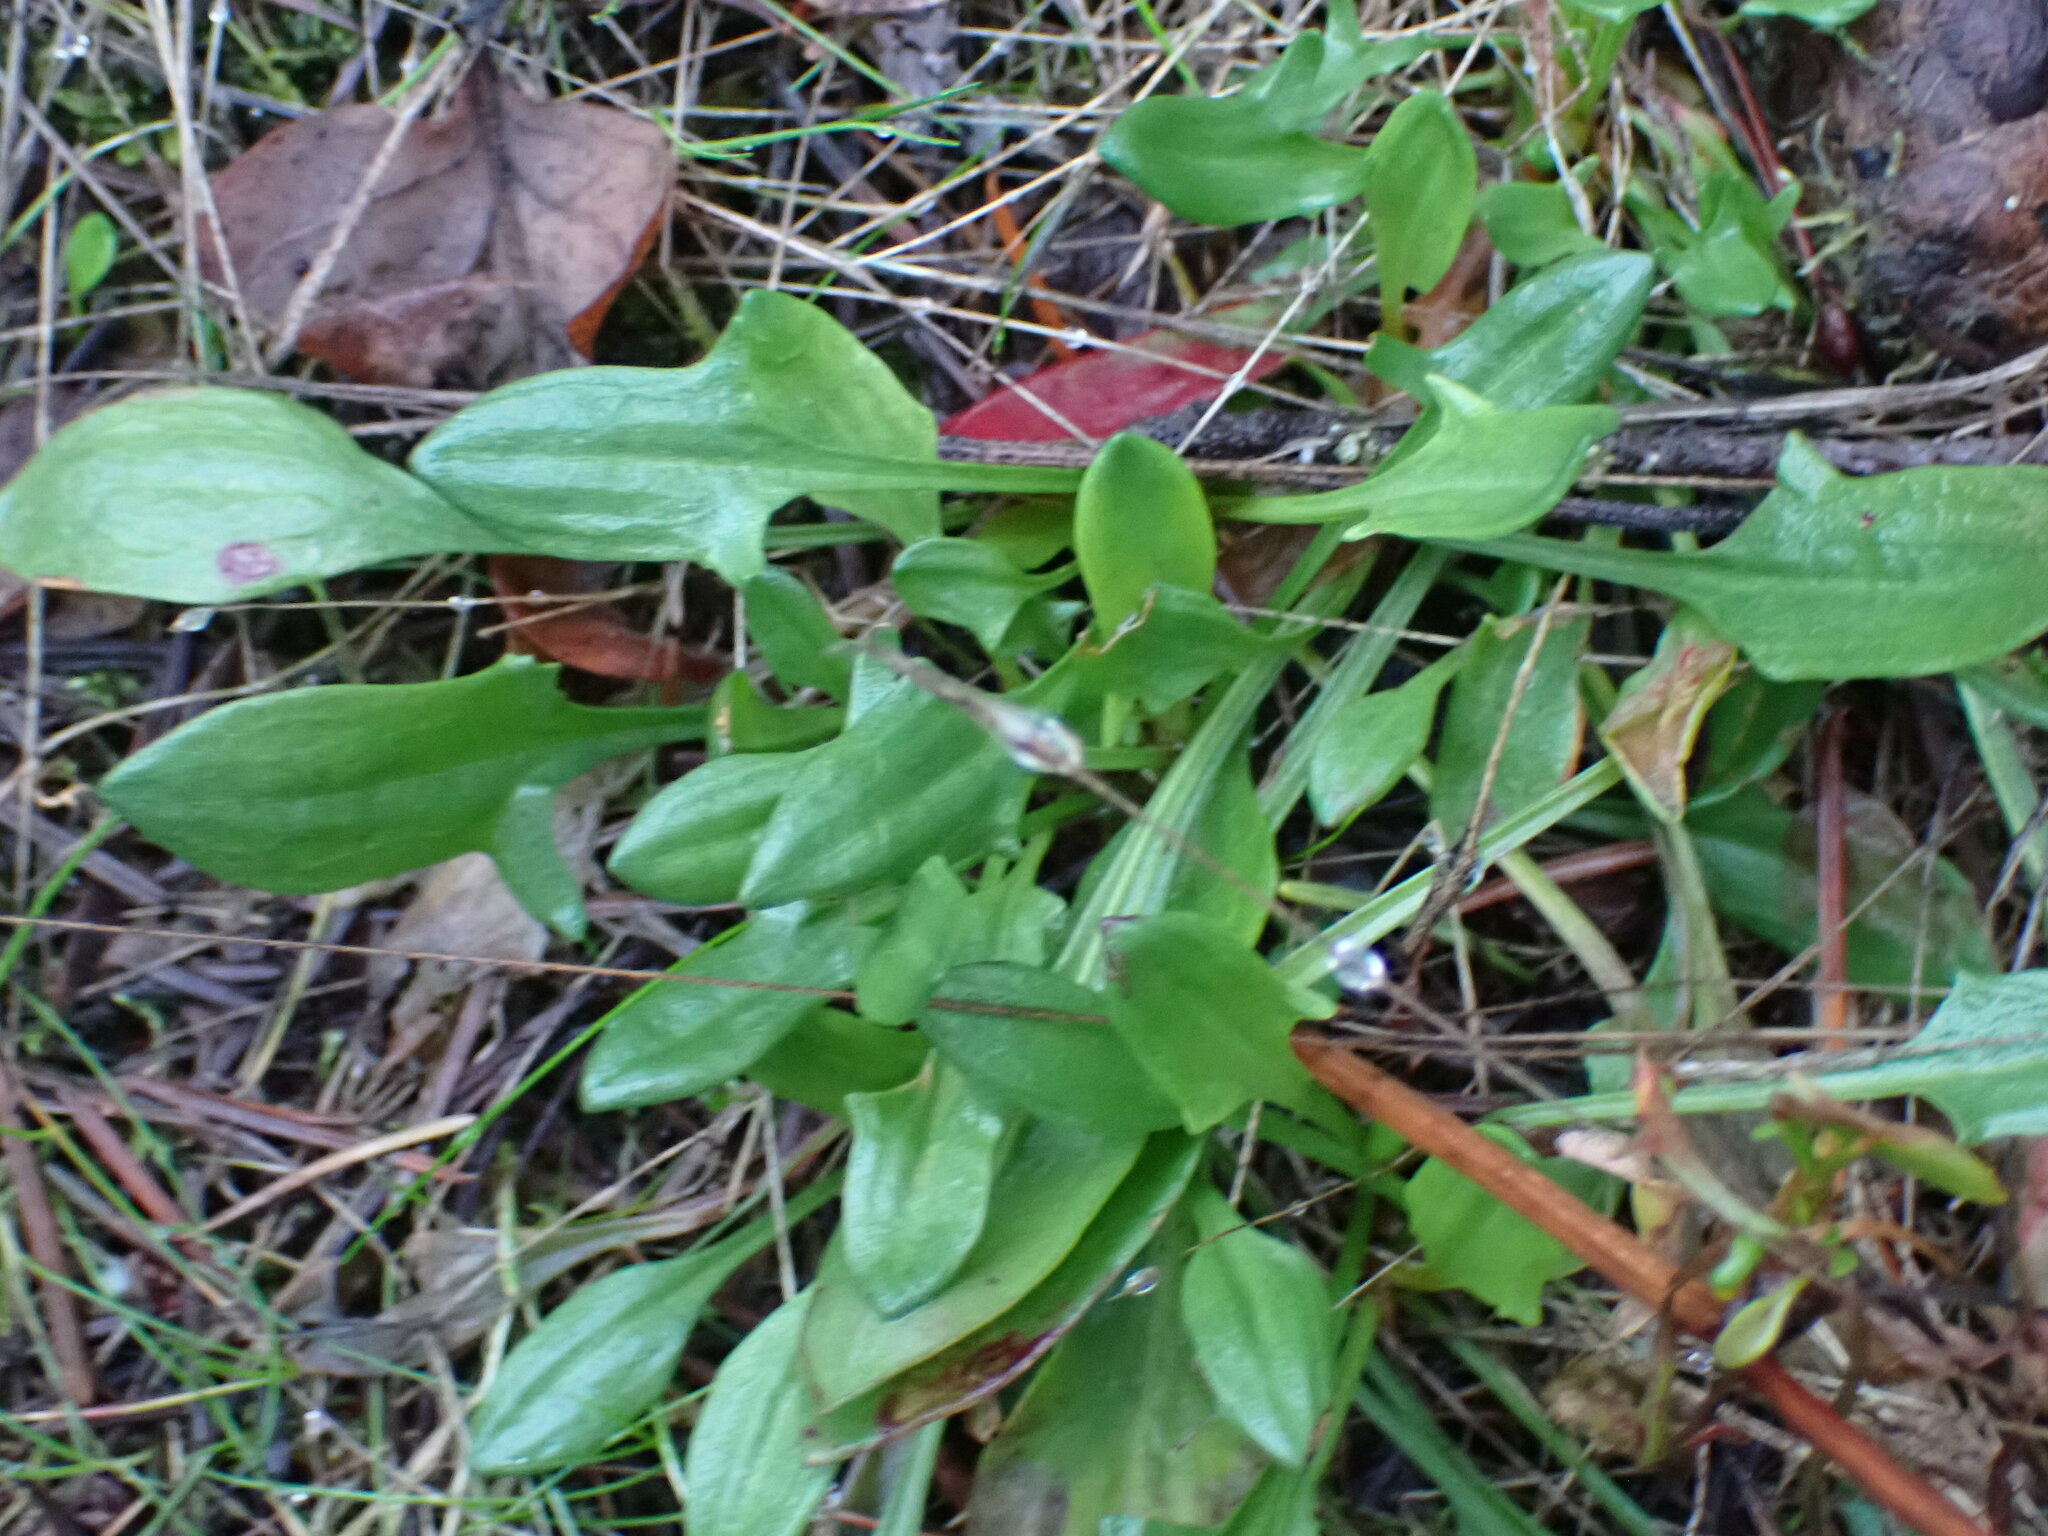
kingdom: Plantae
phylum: Tracheophyta
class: Magnoliopsida
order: Caryophyllales
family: Polygonaceae
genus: Rumex
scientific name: Rumex acetosella
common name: Common sheep sorrel
